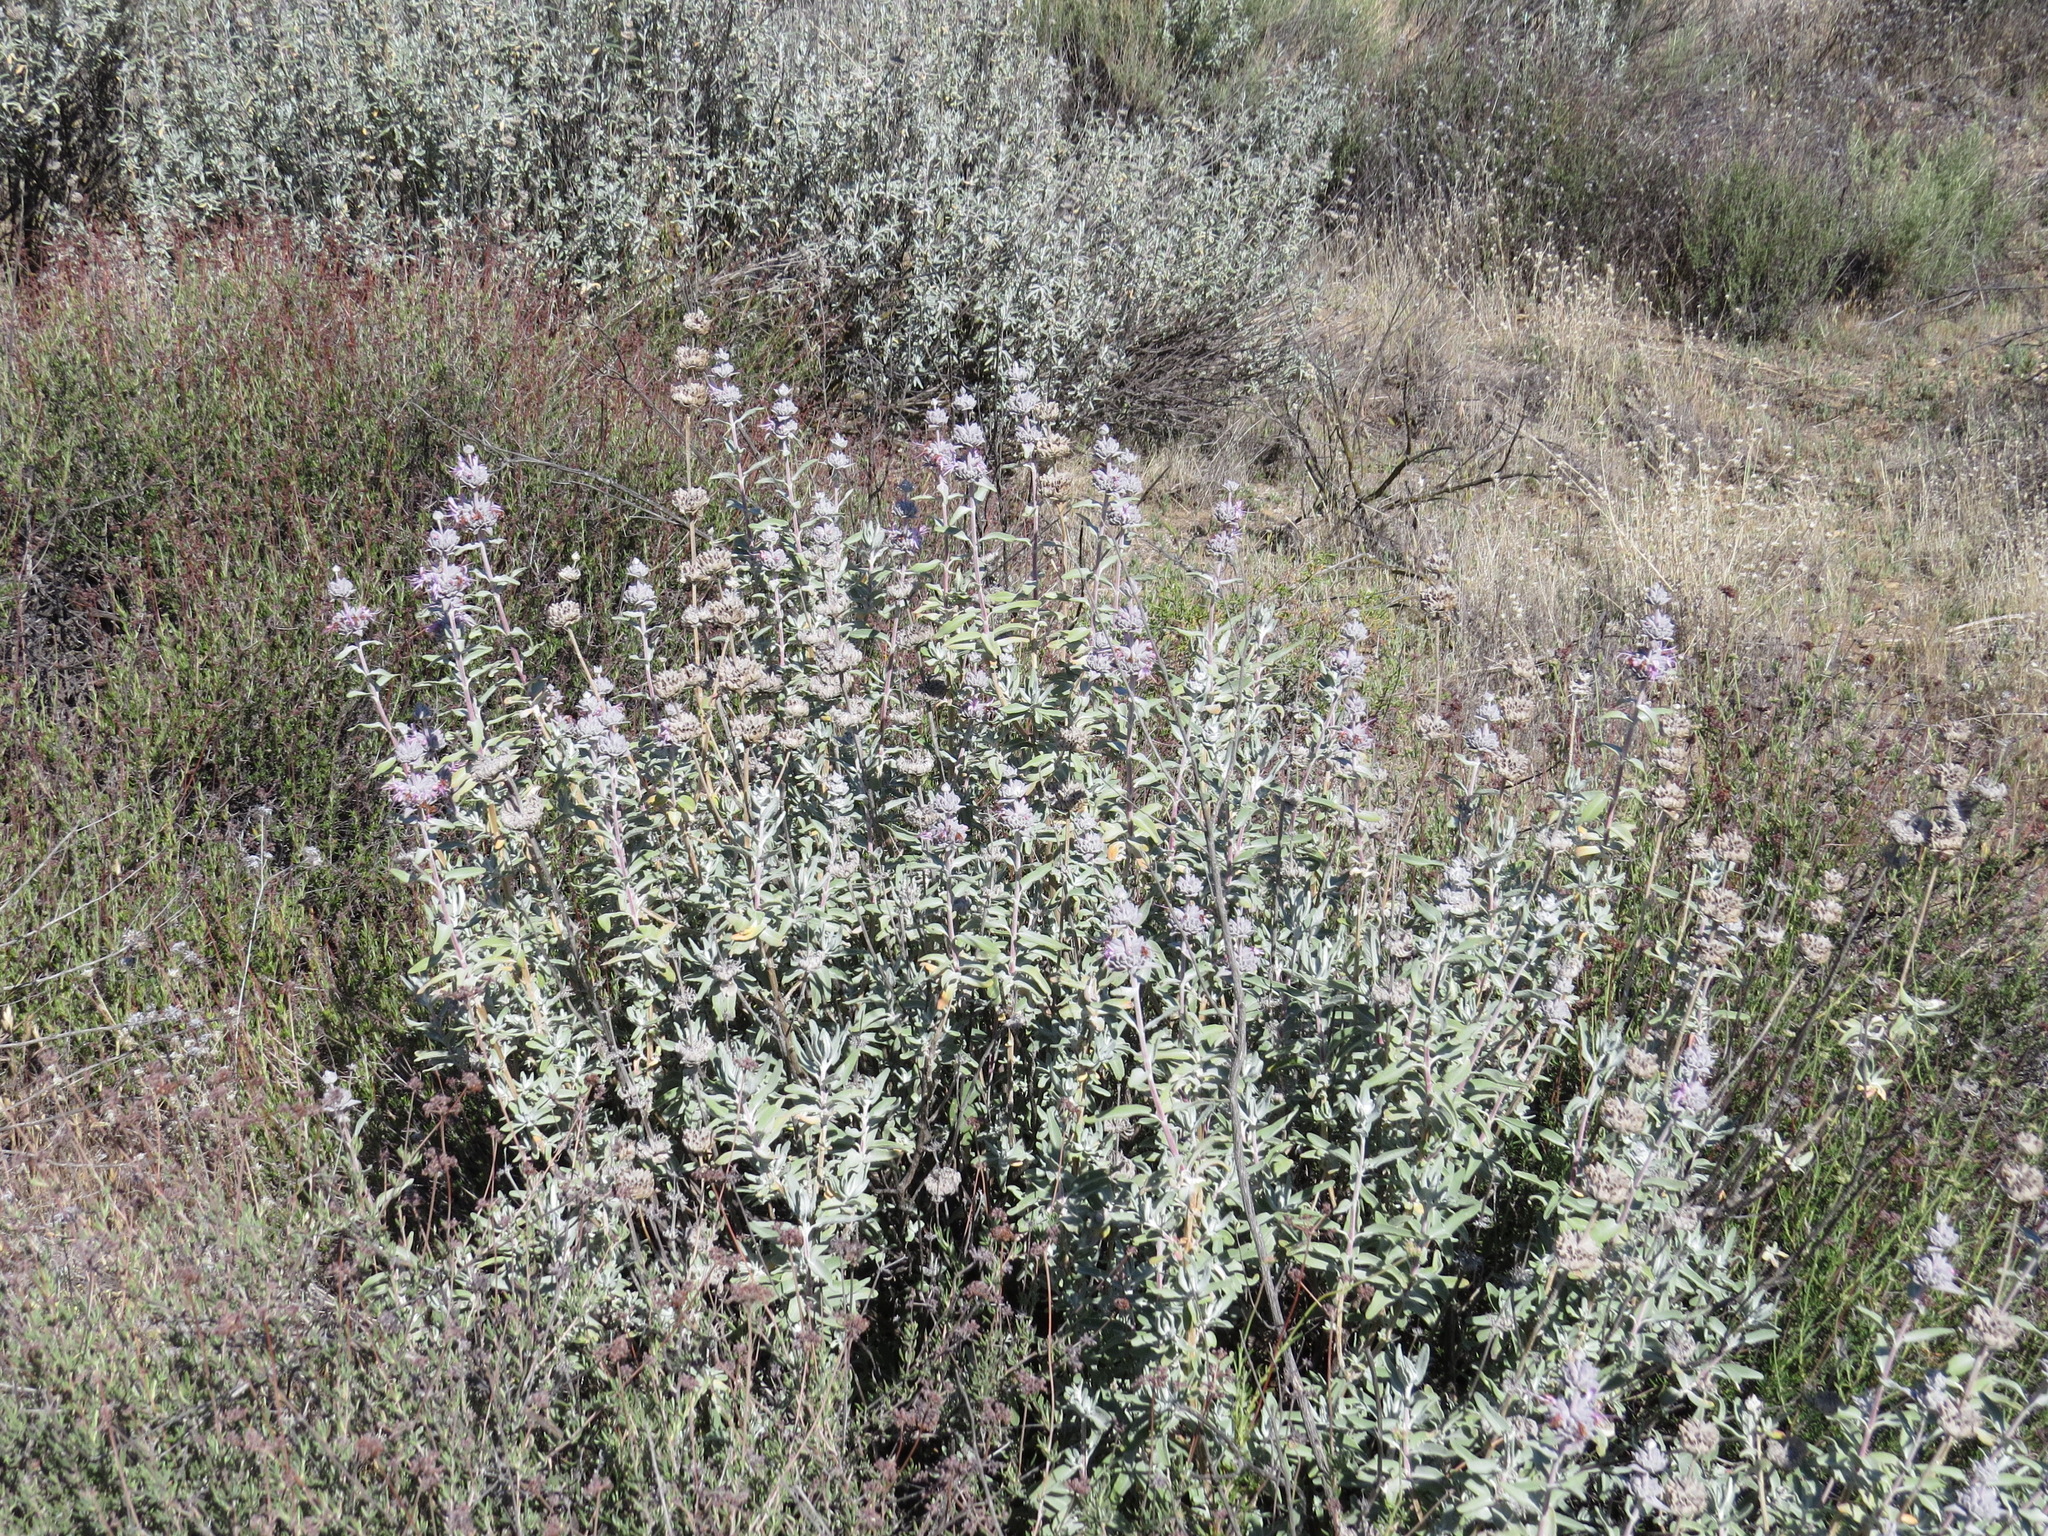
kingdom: Plantae
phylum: Tracheophyta
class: Magnoliopsida
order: Lamiales
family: Lamiaceae
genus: Salvia
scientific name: Salvia leucophylla
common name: Purple sage
